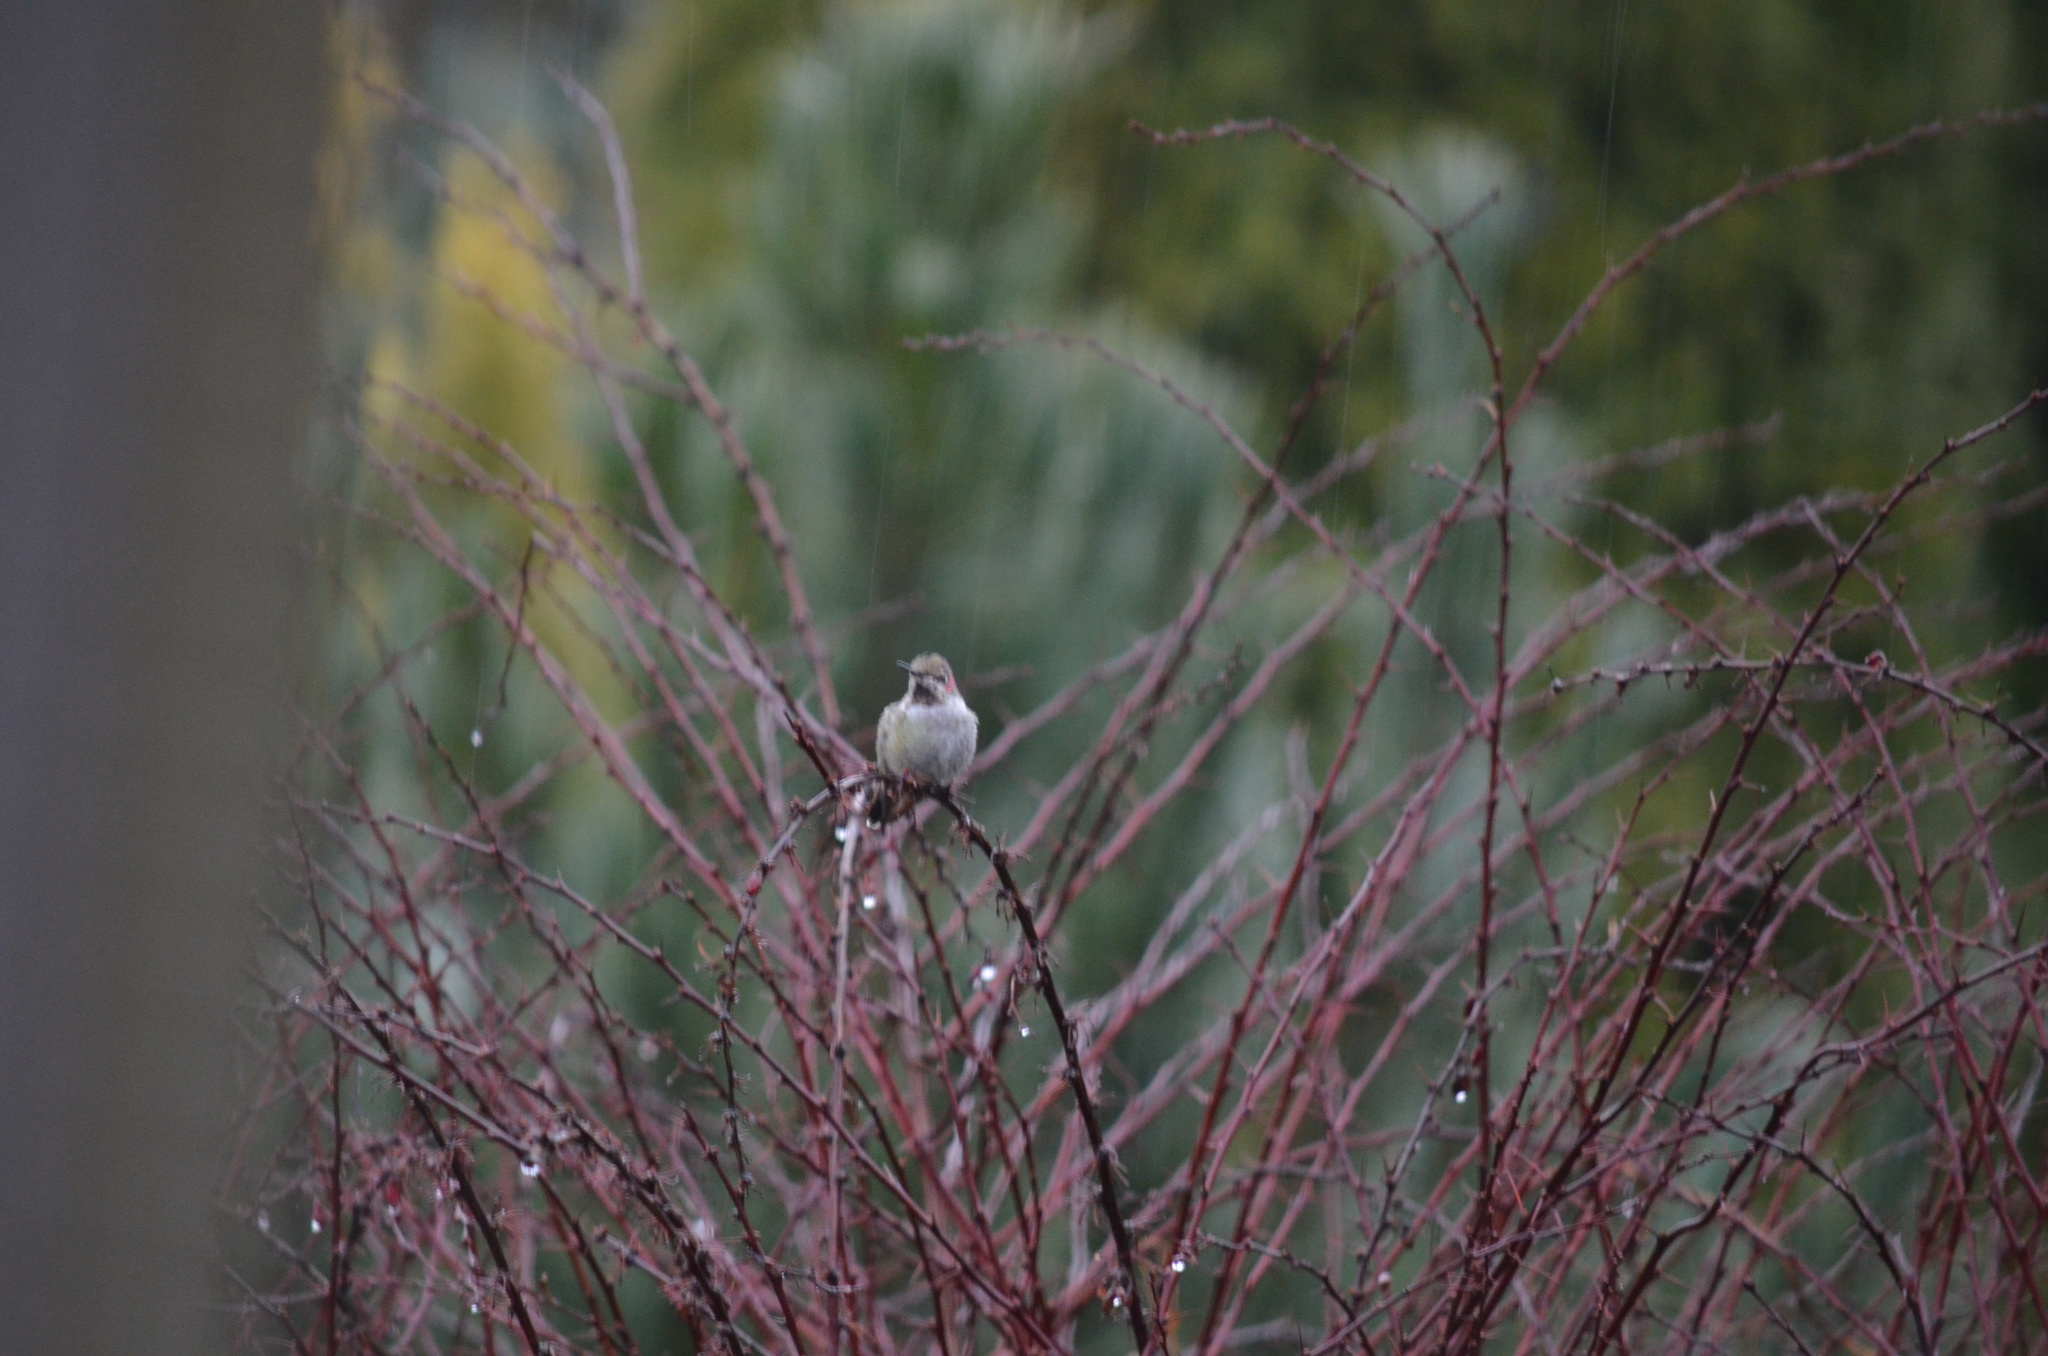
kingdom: Animalia
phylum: Chordata
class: Aves
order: Apodiformes
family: Trochilidae
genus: Calypte
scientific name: Calypte anna
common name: Anna's hummingbird
